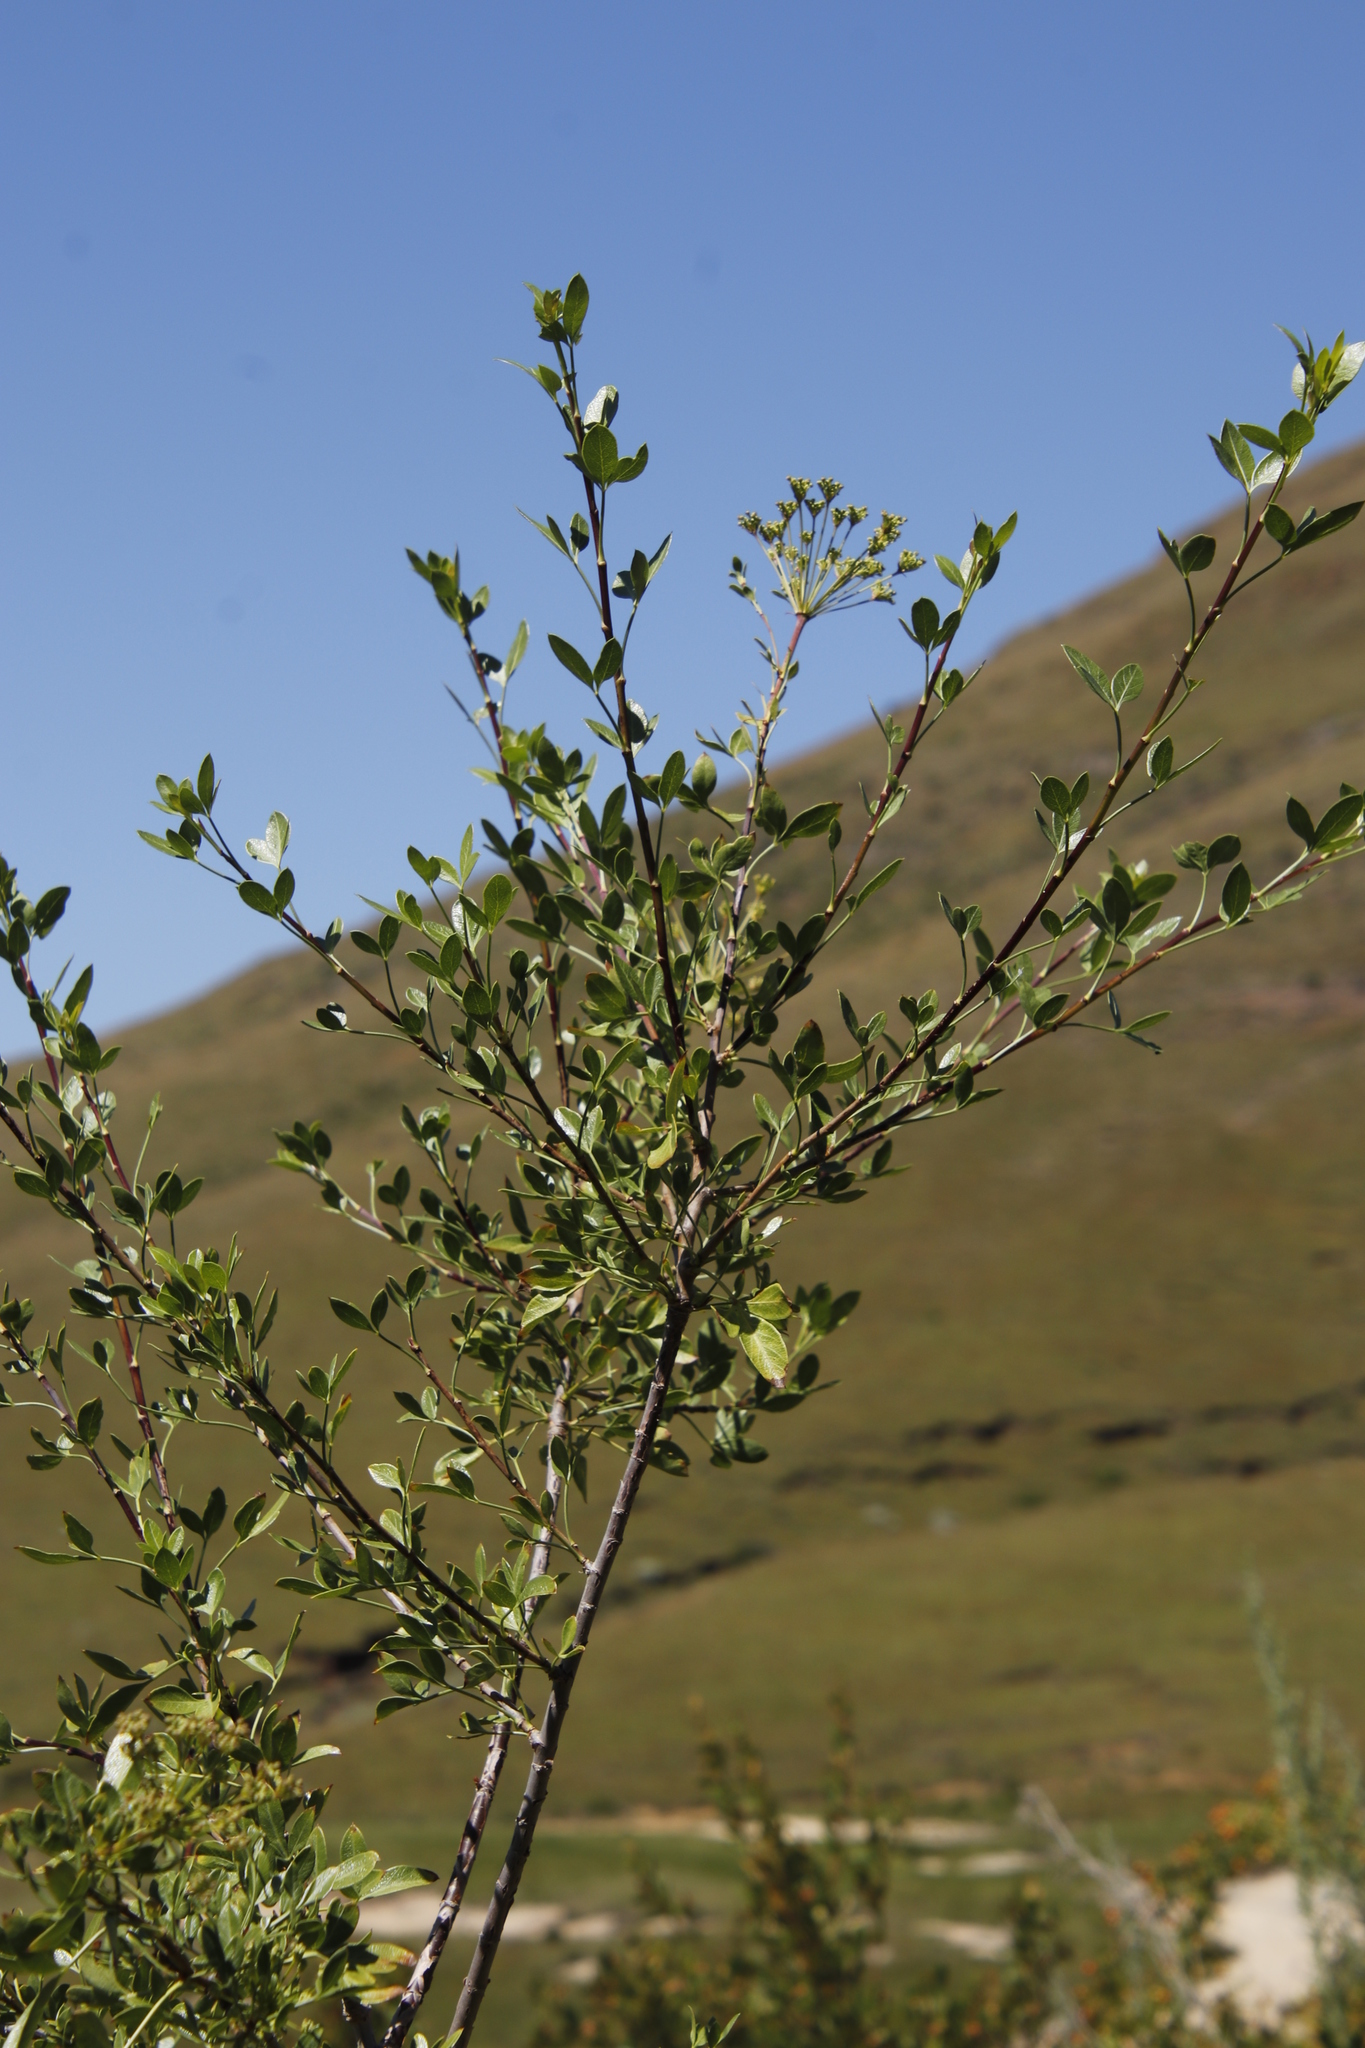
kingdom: Plantae
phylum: Tracheophyta
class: Magnoliopsida
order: Apiales
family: Apiaceae
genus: Polemannia
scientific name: Polemannia simplicior
